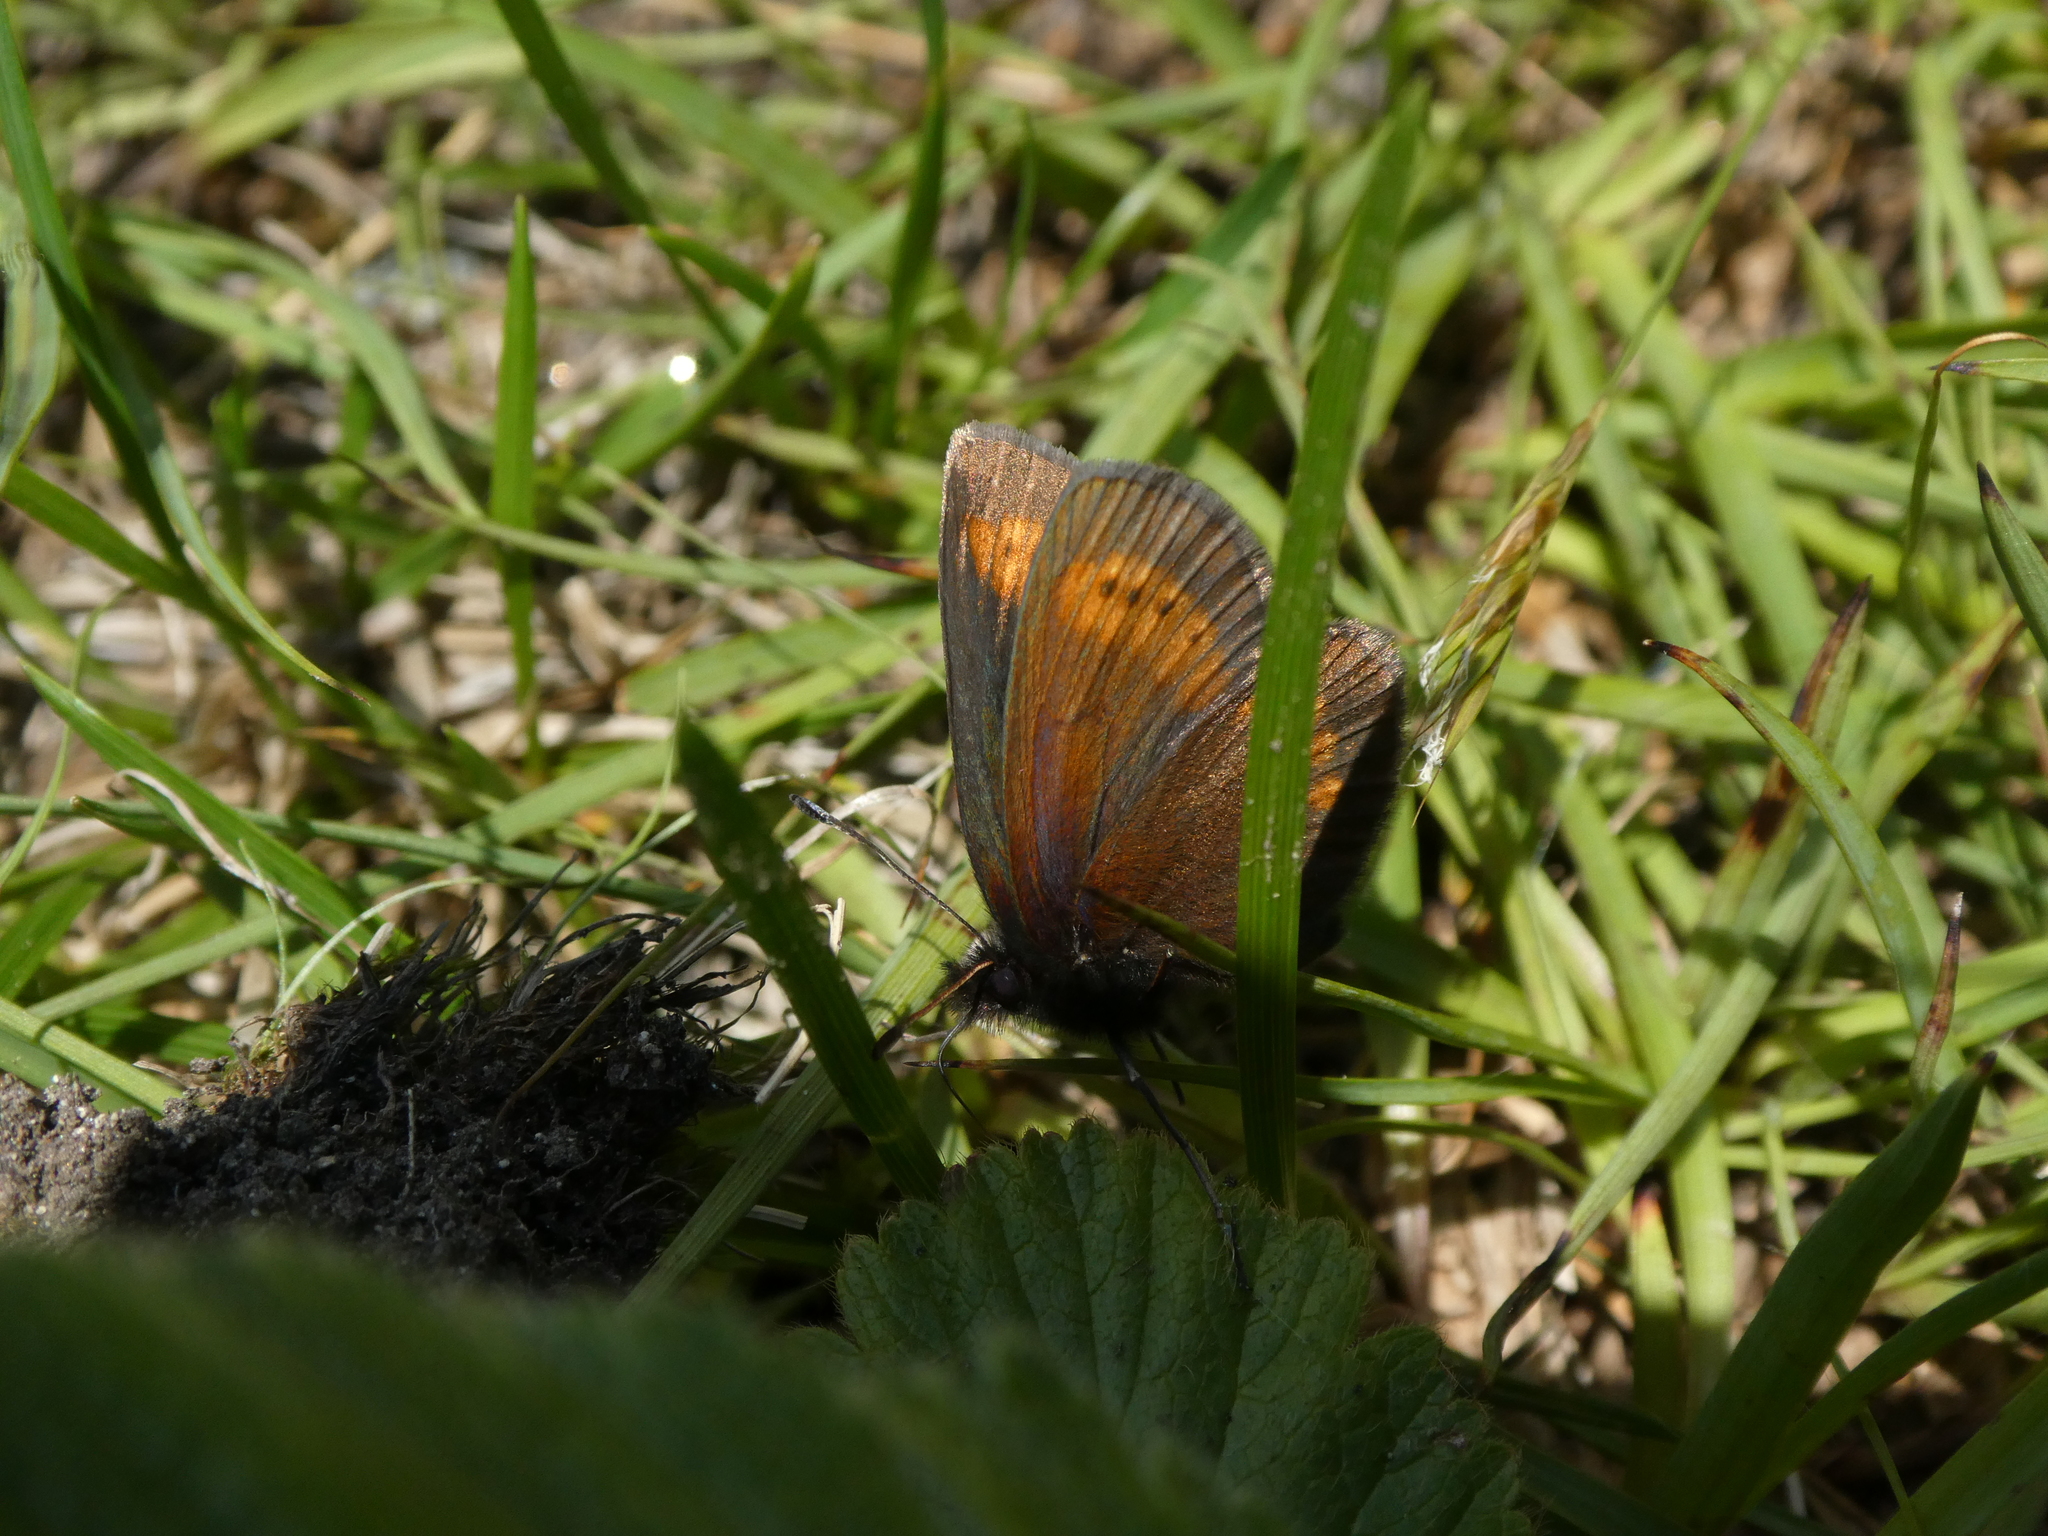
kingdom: Animalia
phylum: Arthropoda
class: Insecta
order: Lepidoptera
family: Nymphalidae
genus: Erebia
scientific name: Erebia melampus
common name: Lesser mountain ringlet
